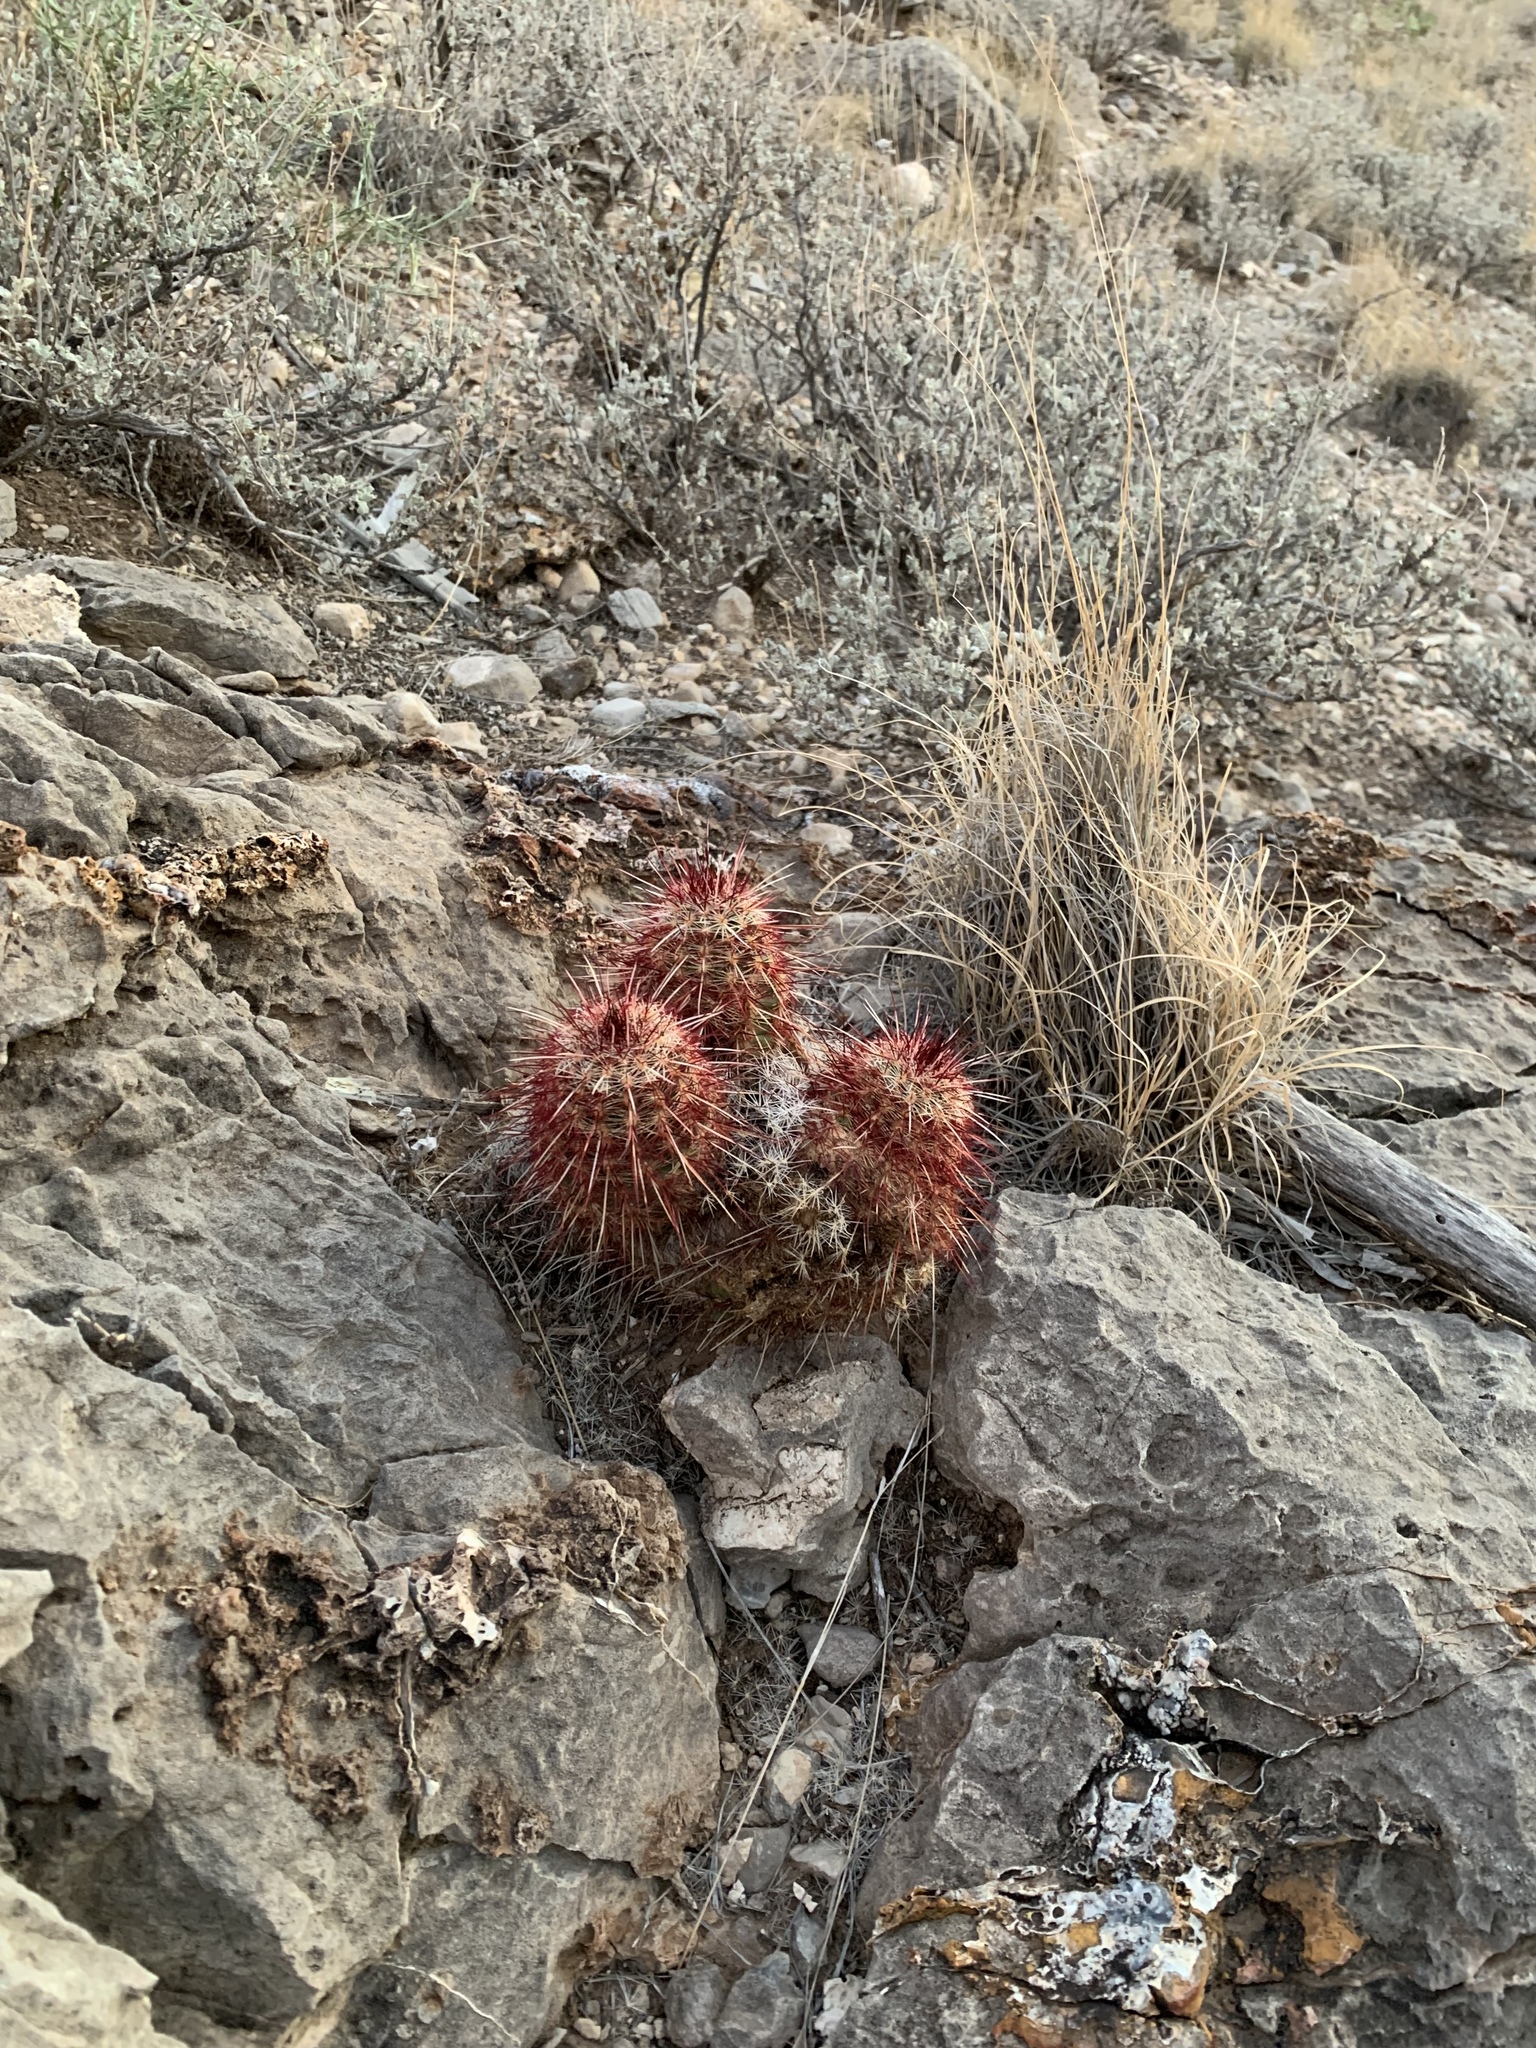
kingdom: Plantae
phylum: Tracheophyta
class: Magnoliopsida
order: Caryophyllales
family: Cactaceae
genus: Echinocereus
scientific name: Echinocereus viridiflorus
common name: Nylon hedgehog cactus
